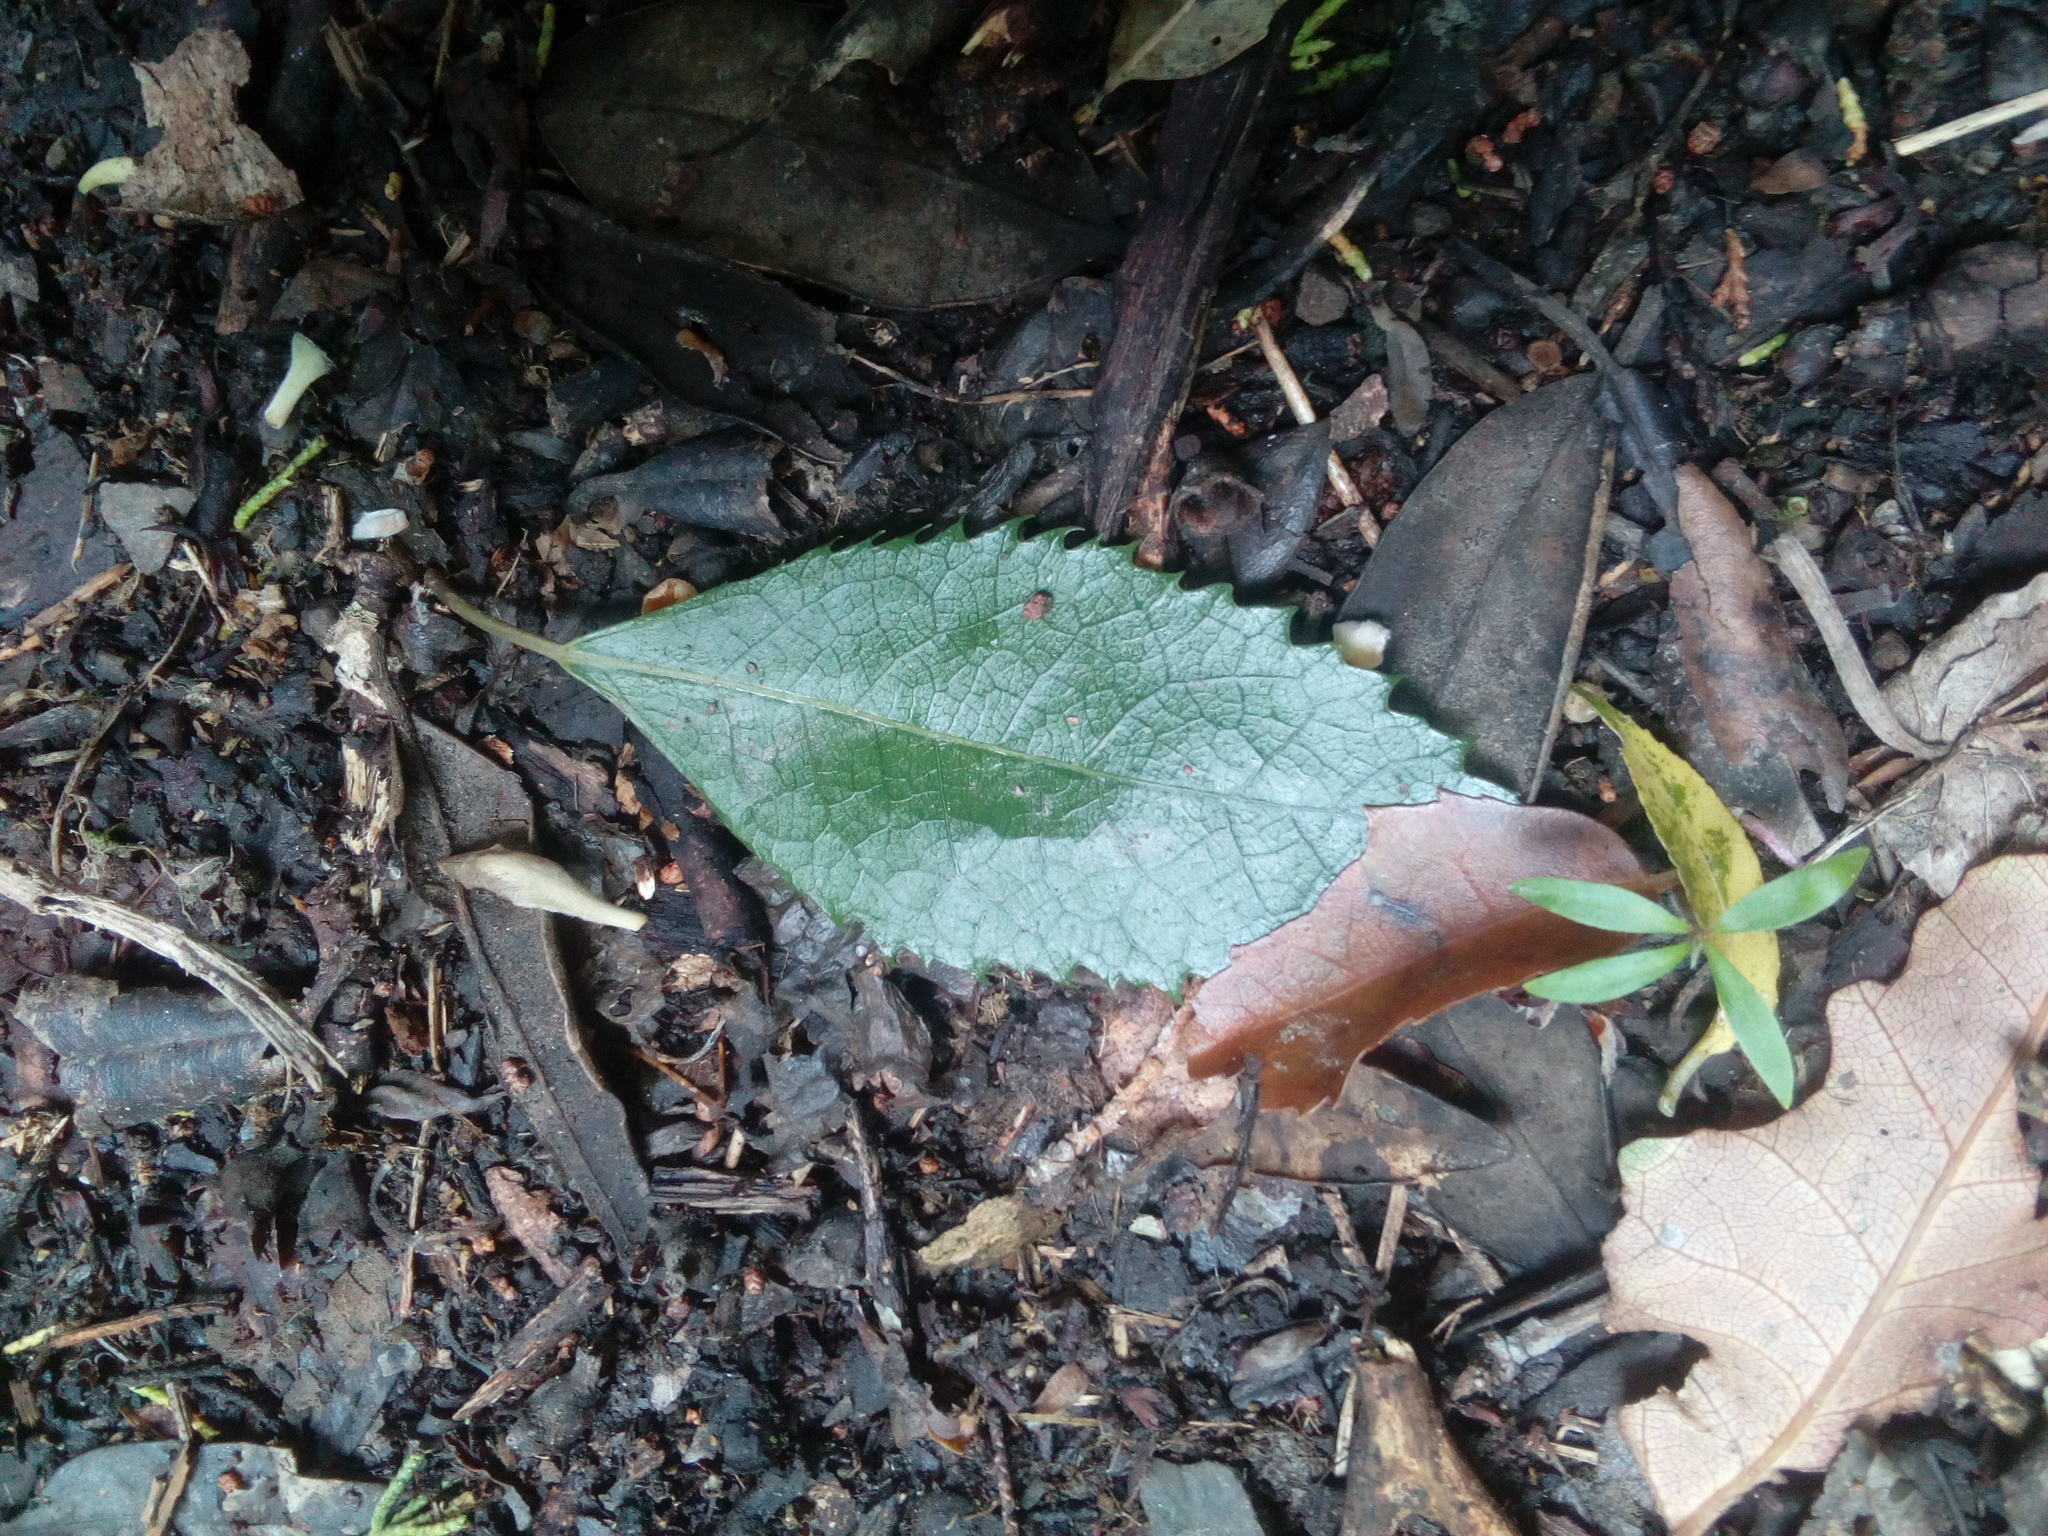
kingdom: Plantae
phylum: Tracheophyta
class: Magnoliopsida
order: Malvales
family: Malvaceae
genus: Hoheria
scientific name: Hoheria populnea
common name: Lacebark
